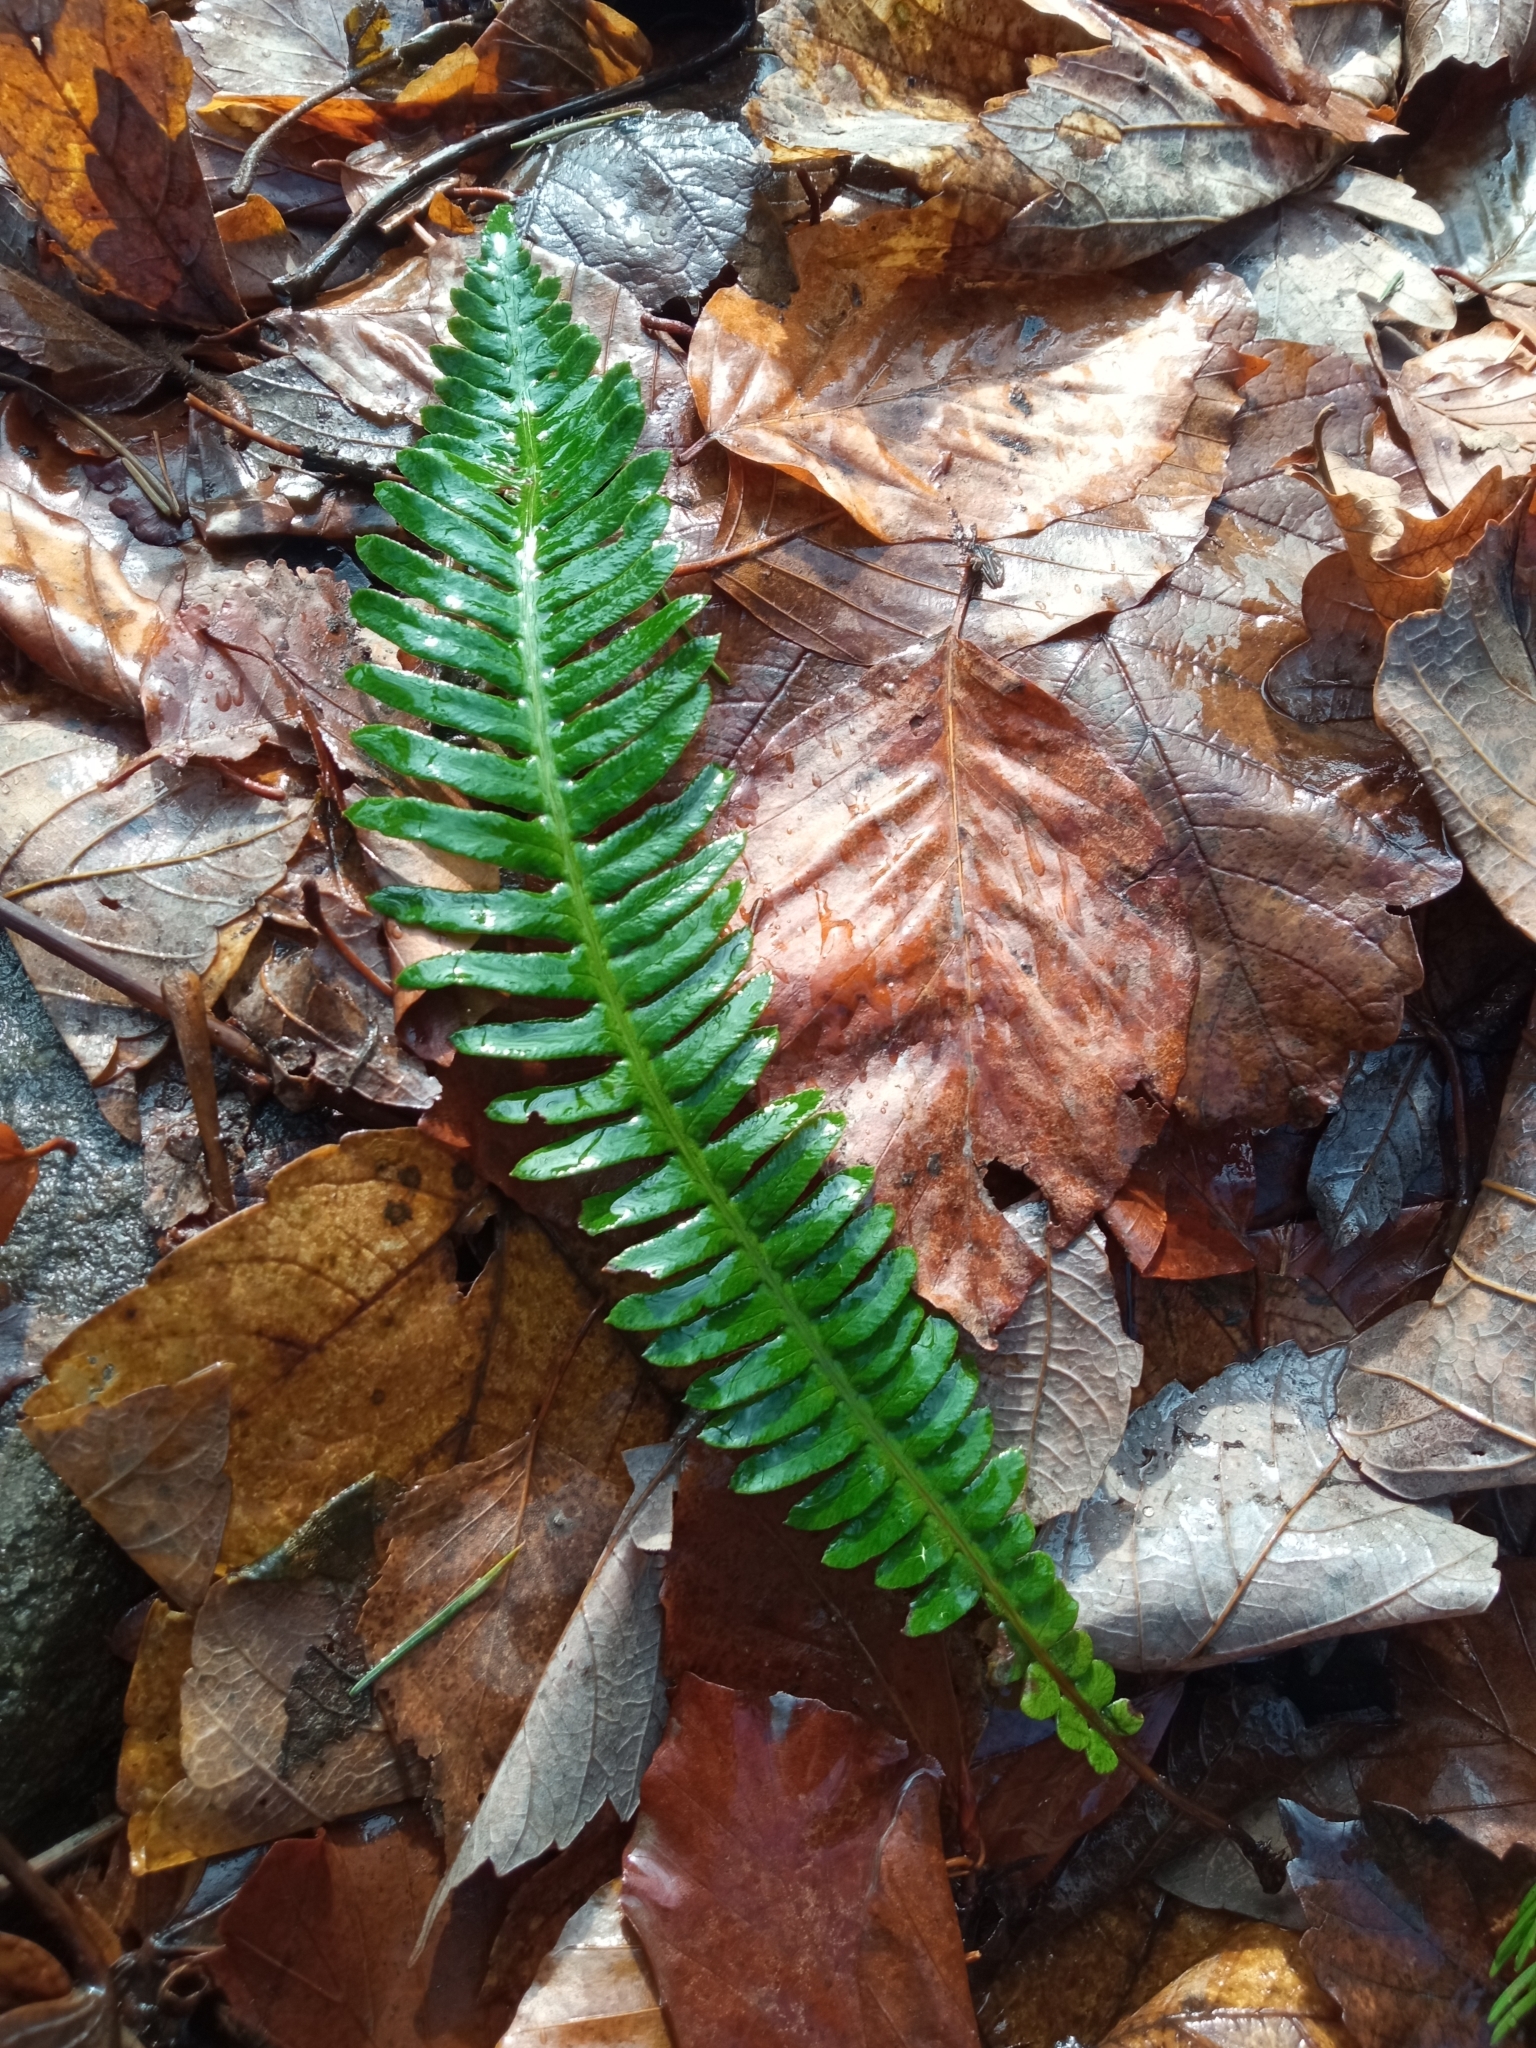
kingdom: Plantae
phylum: Tracheophyta
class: Polypodiopsida
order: Polypodiales
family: Blechnaceae
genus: Struthiopteris
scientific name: Struthiopteris spicant
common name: Deer fern
